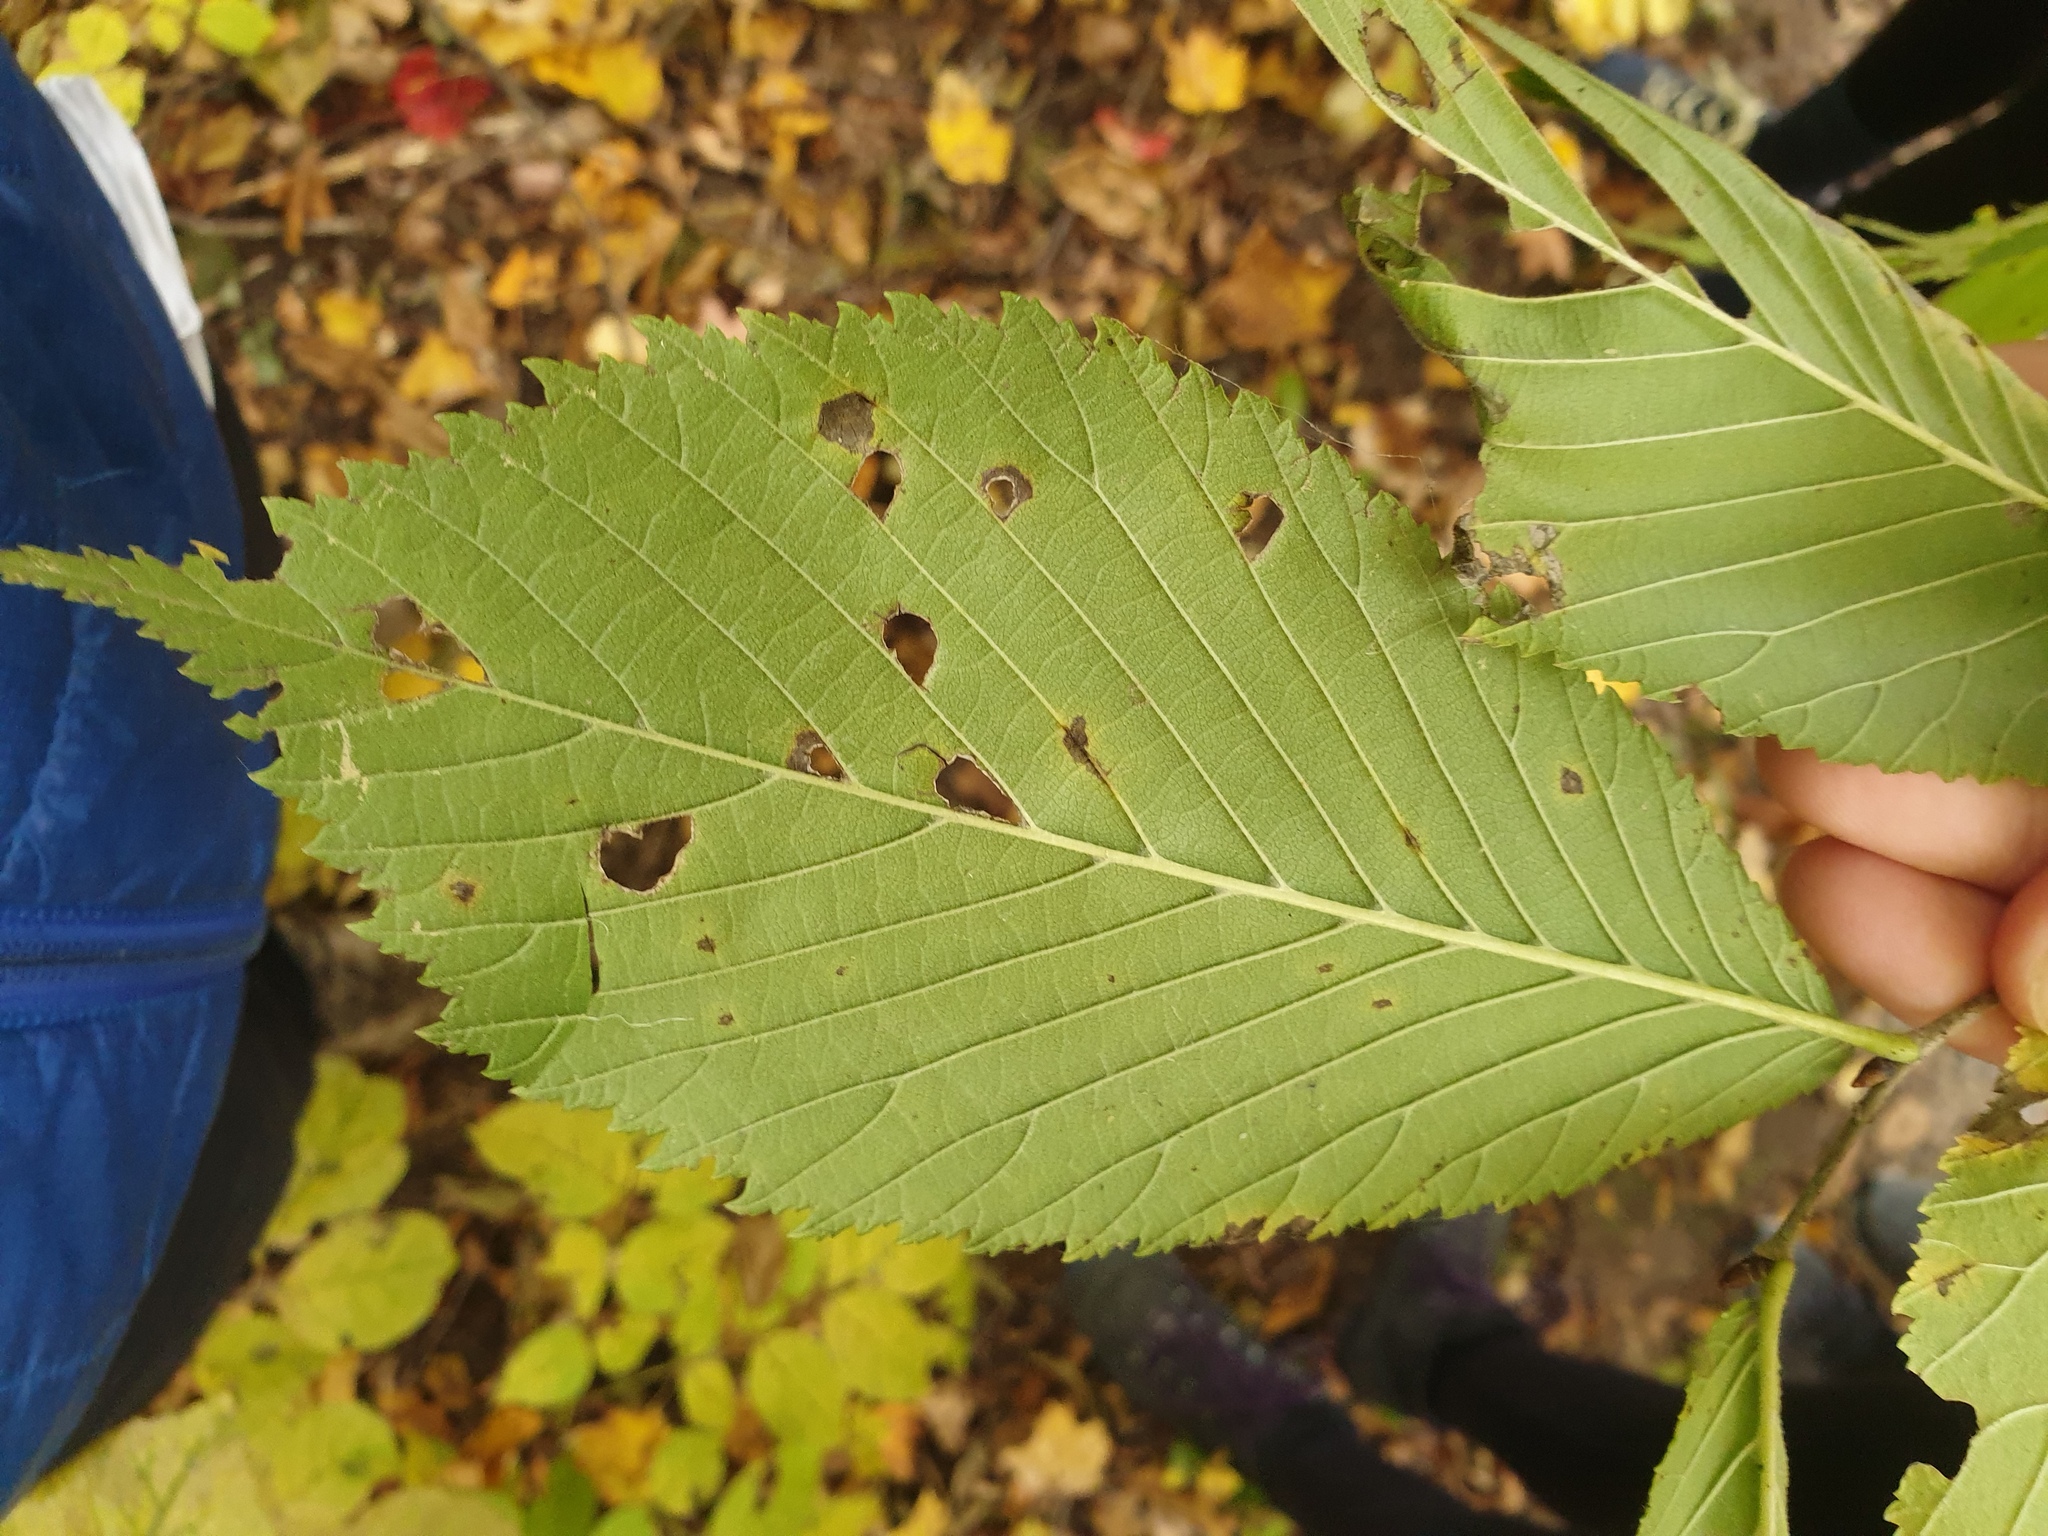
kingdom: Plantae
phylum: Tracheophyta
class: Magnoliopsida
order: Rosales
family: Ulmaceae
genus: Ulmus
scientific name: Ulmus rubra
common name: Slippery elm
